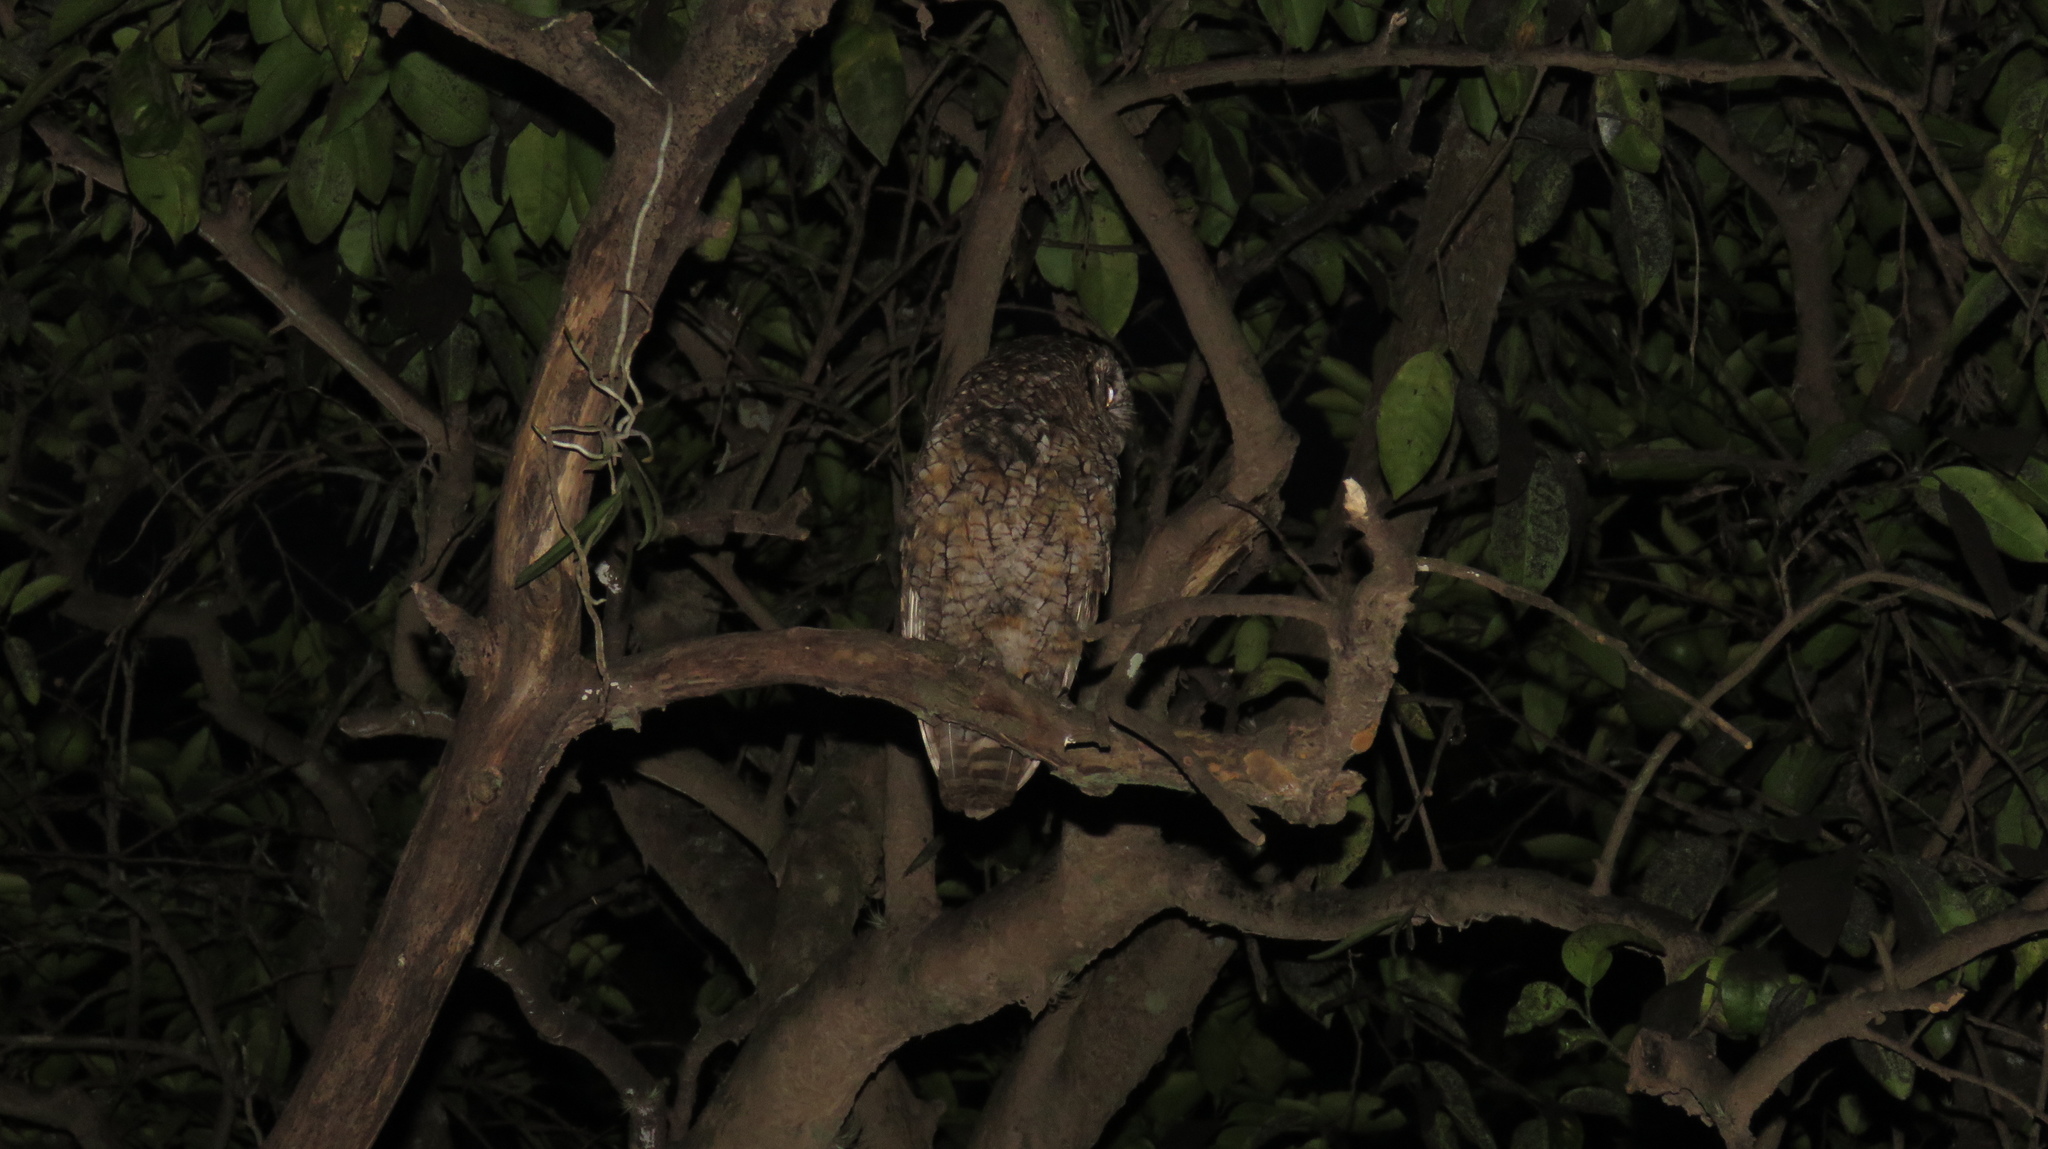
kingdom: Animalia
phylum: Chordata
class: Aves
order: Strigiformes
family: Strigidae
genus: Megascops
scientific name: Megascops choliba
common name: Tropical screech-owl
